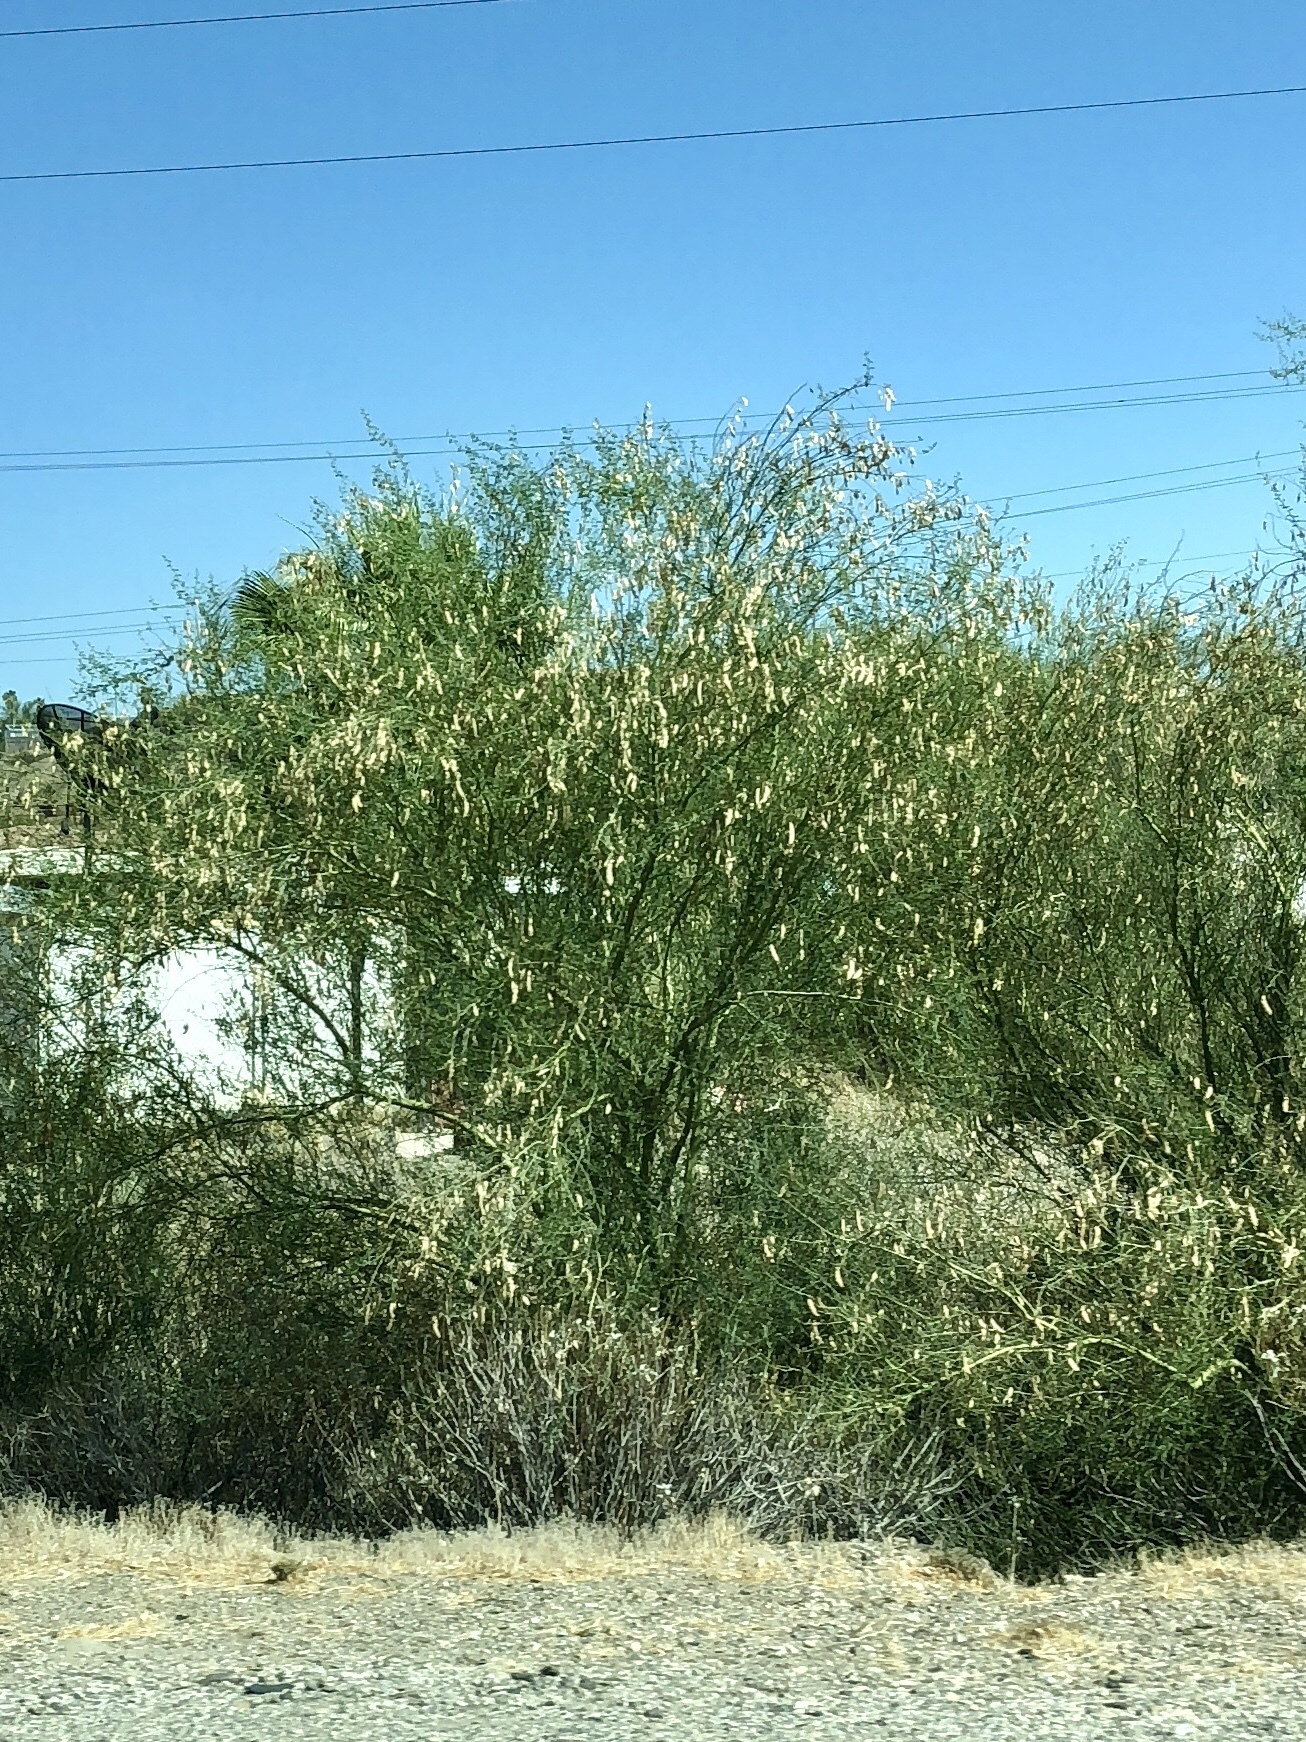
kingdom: Plantae
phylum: Tracheophyta
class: Magnoliopsida
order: Fabales
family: Fabaceae
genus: Parkinsonia
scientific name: Parkinsonia florida
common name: Blue paloverde
